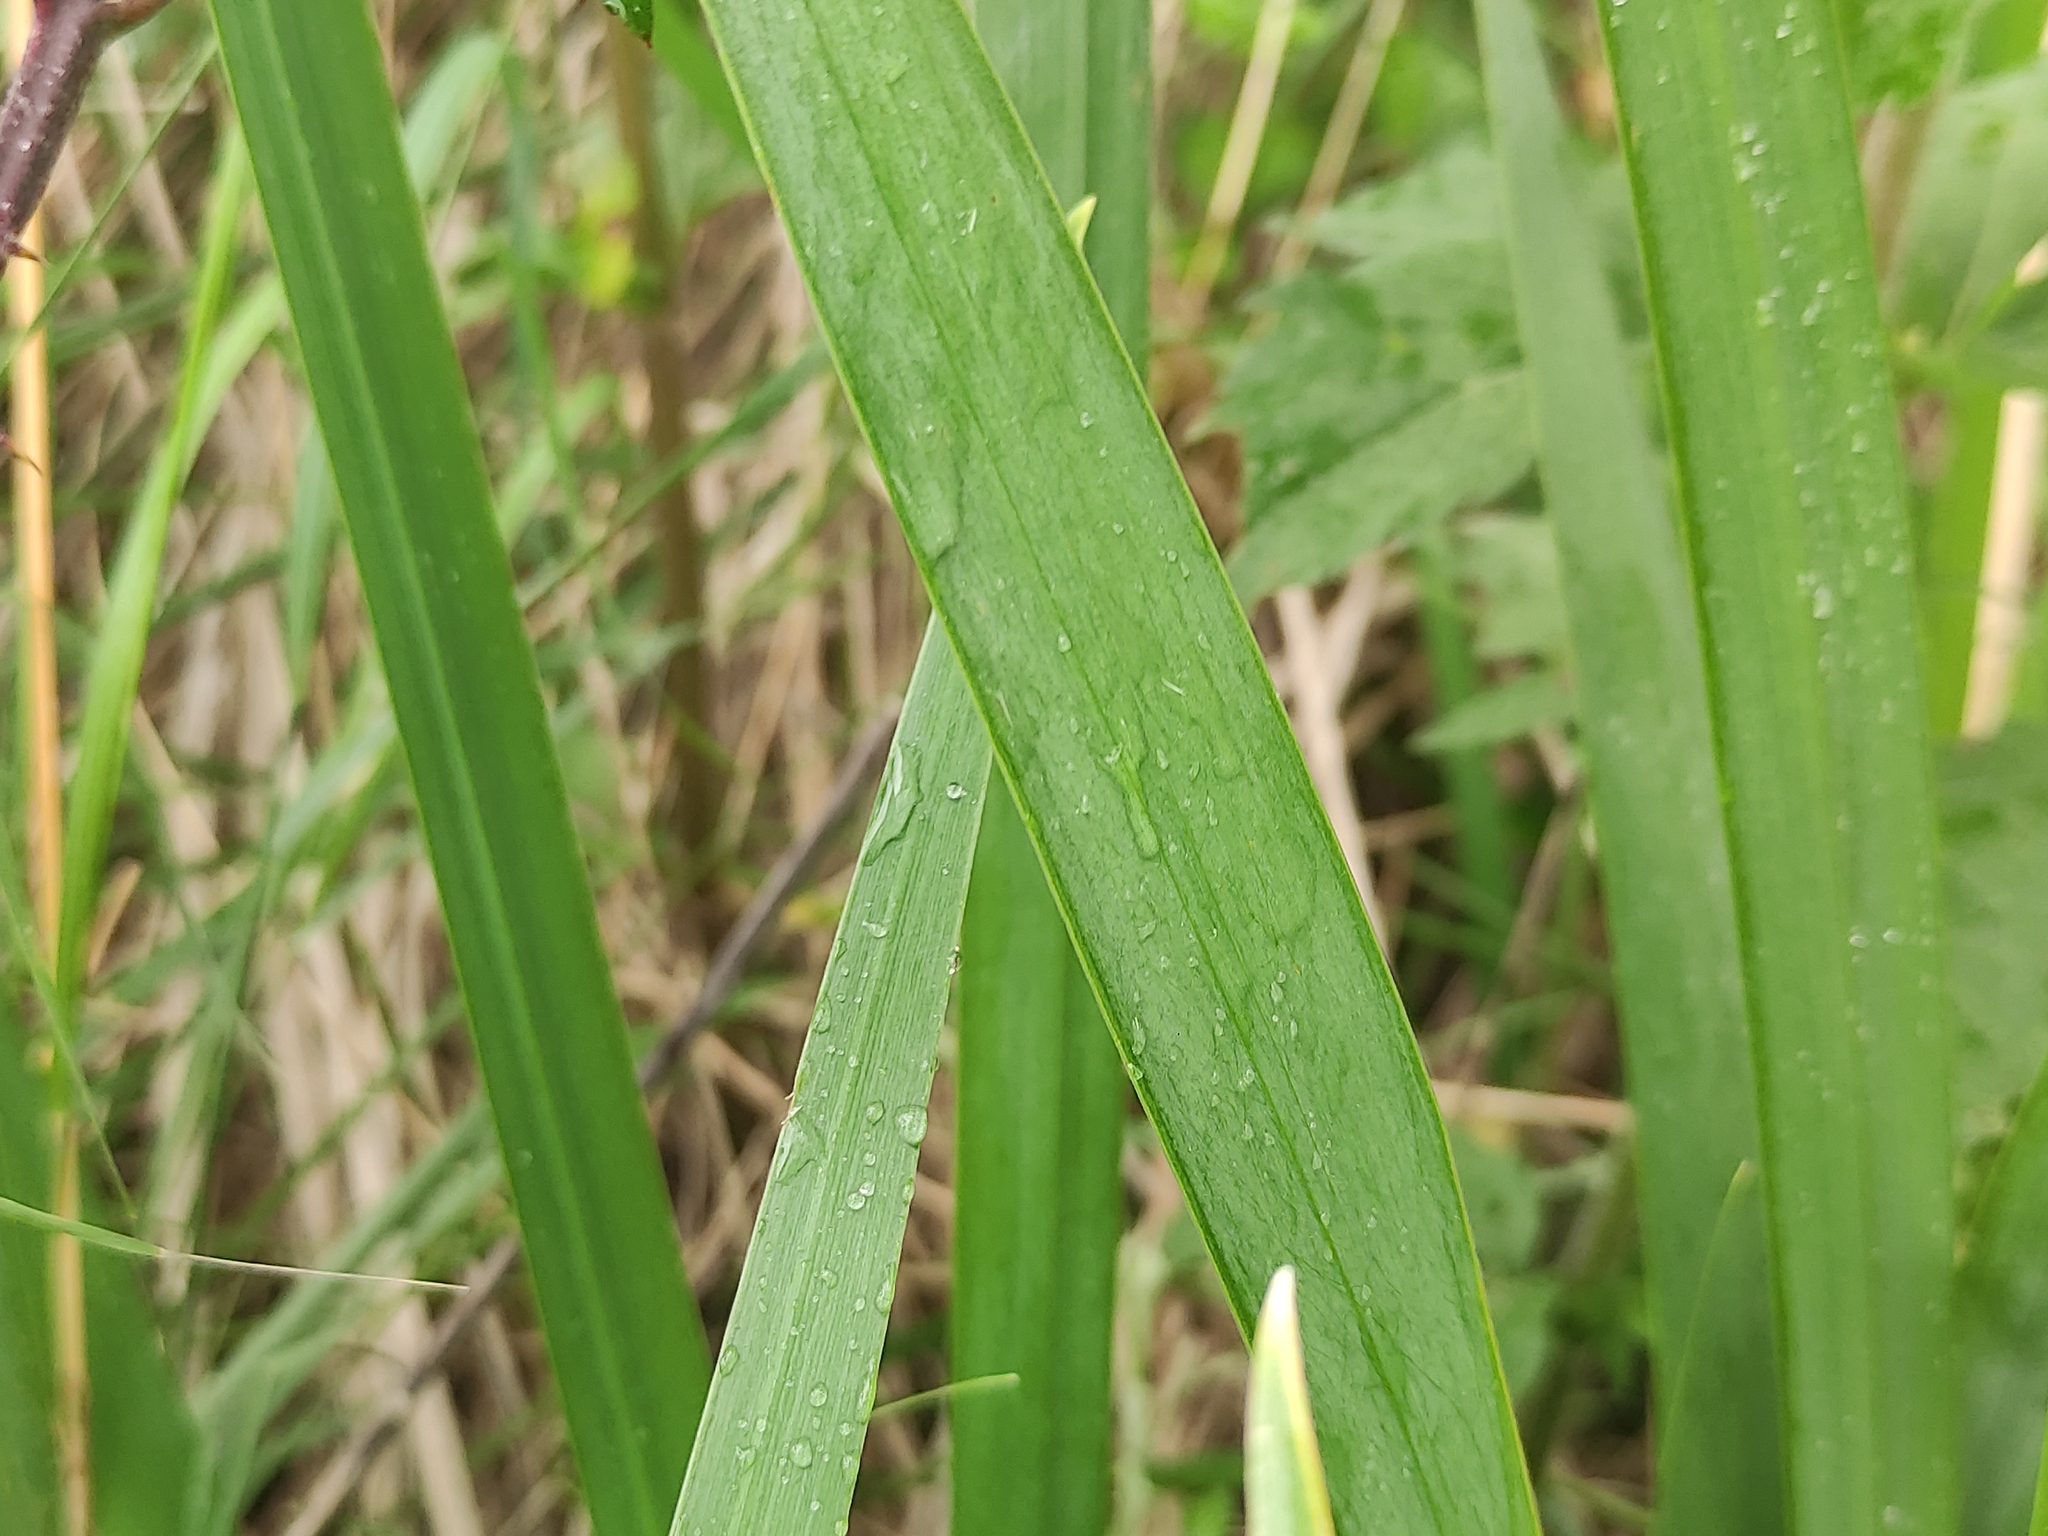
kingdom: Plantae
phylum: Tracheophyta
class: Liliopsida
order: Asparagales
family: Iridaceae
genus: Iris
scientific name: Iris pseudacorus
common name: Yellow flag
